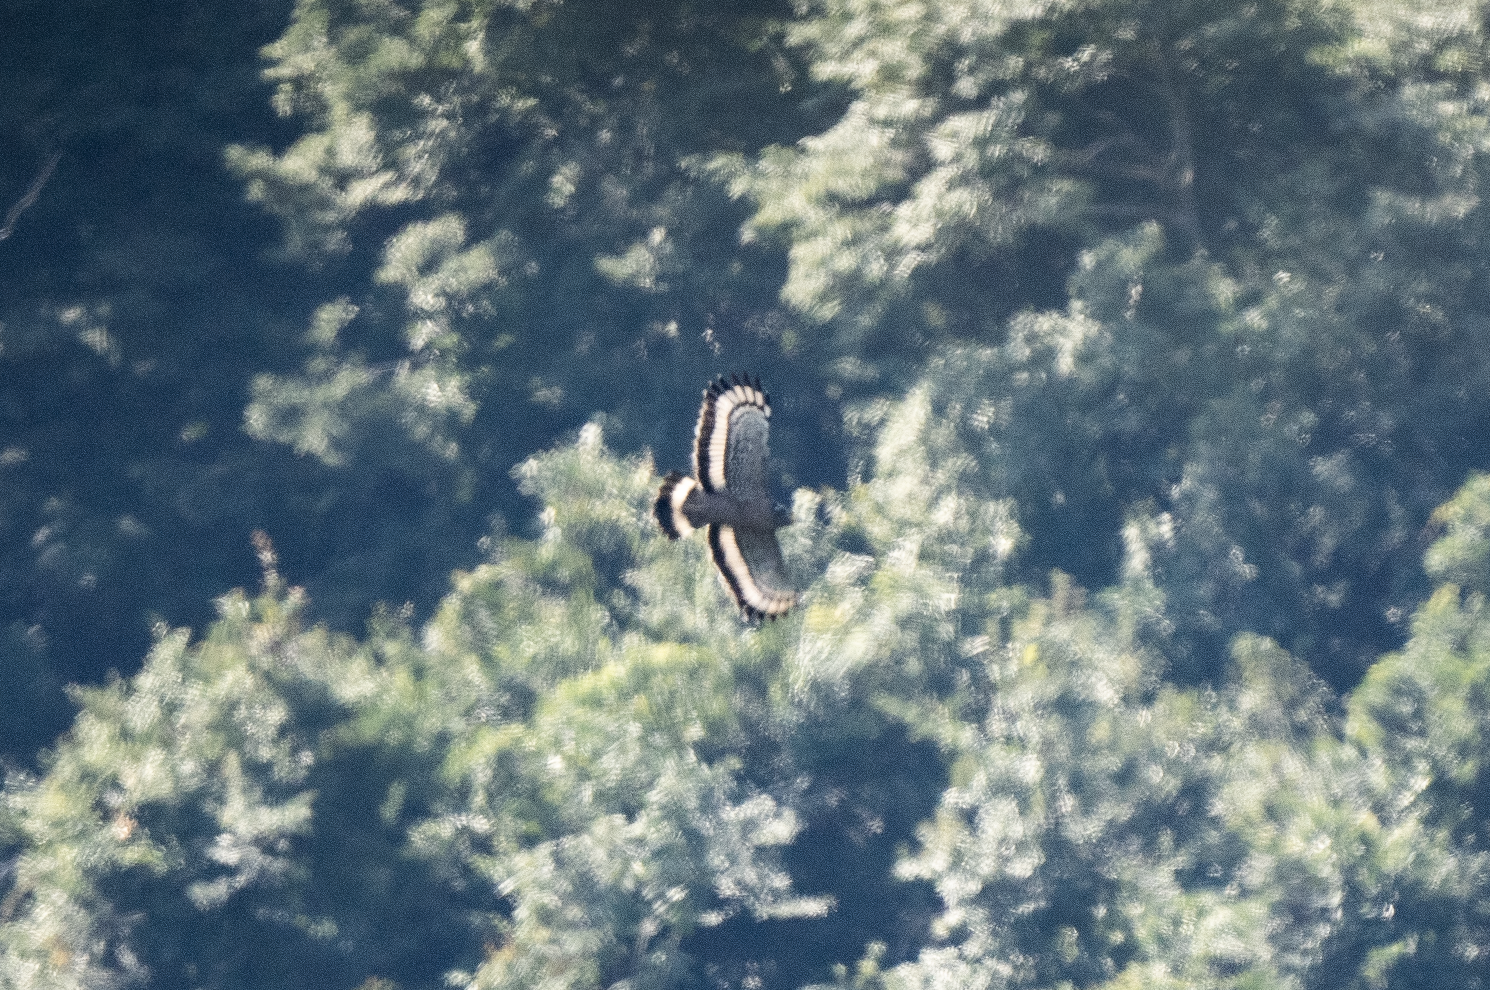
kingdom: Animalia
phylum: Chordata
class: Aves
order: Accipitriformes
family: Accipitridae
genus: Spilornis
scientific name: Spilornis cheela
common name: Crested serpent eagle
